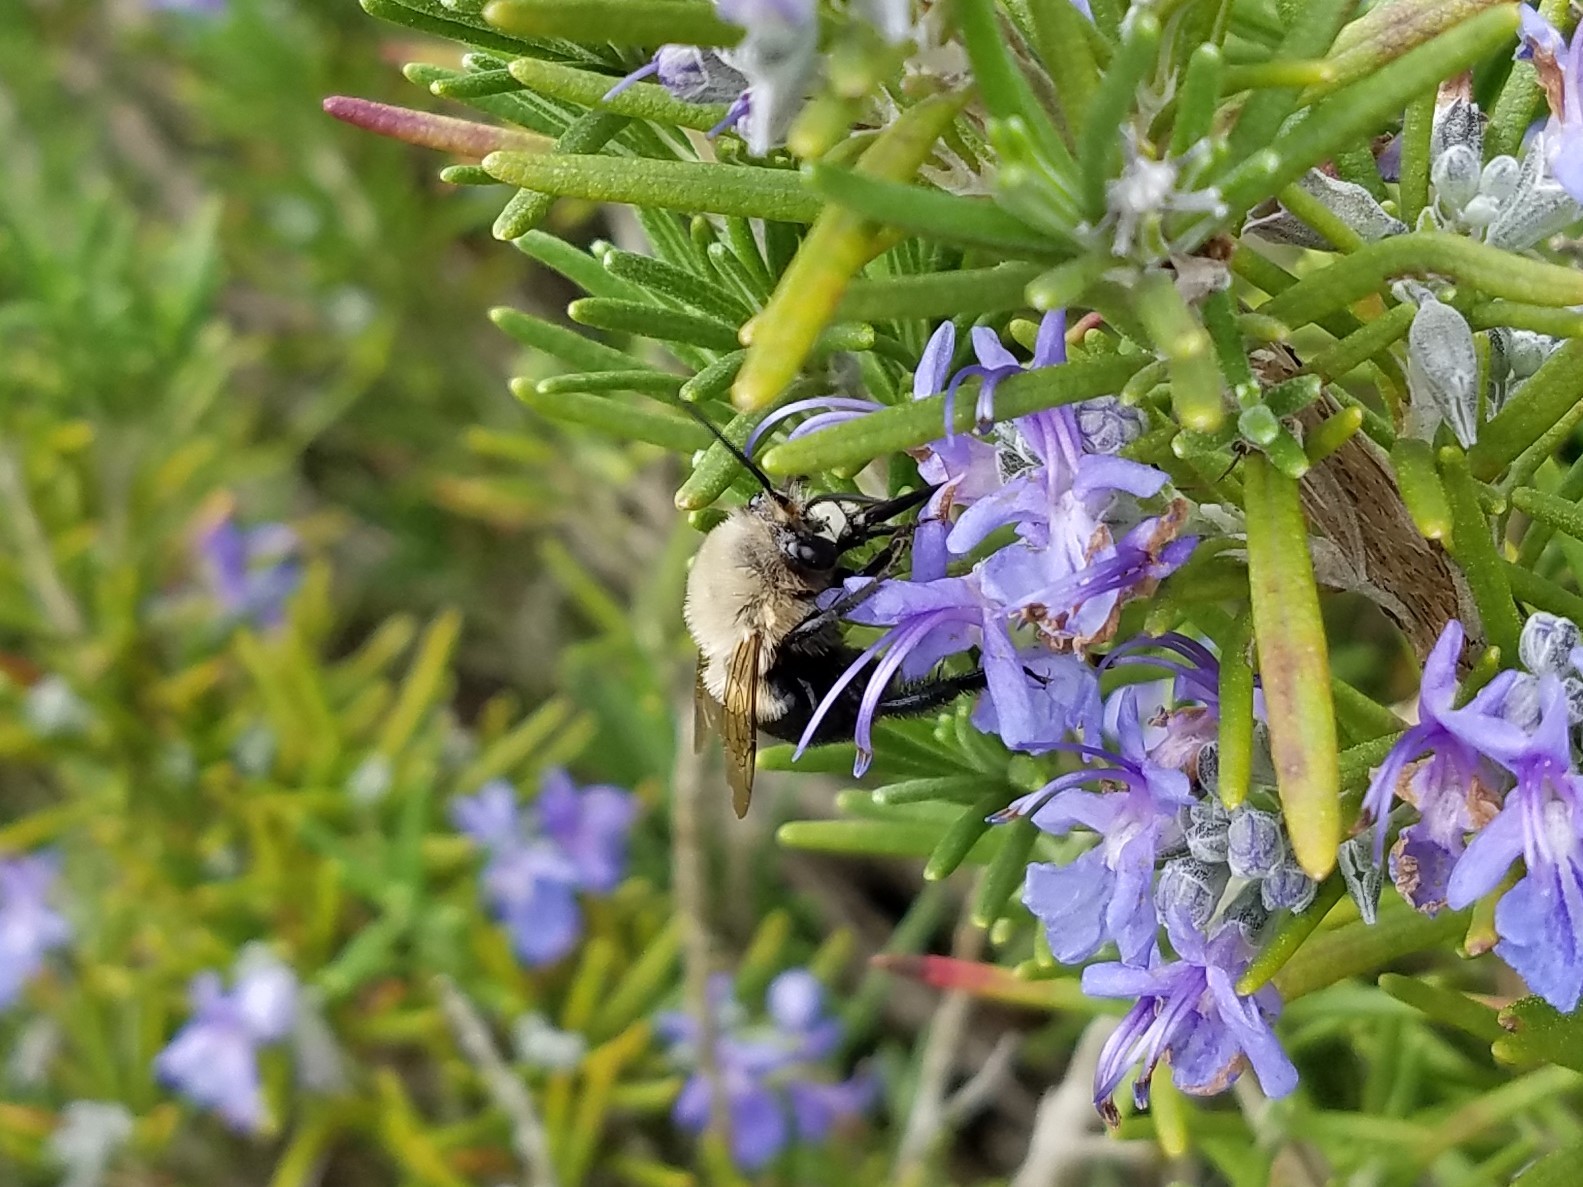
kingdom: Animalia
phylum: Arthropoda
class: Insecta
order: Hymenoptera
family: Apidae
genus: Habropoda
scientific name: Habropoda laboriosa
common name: Southeastern blueberry bee
